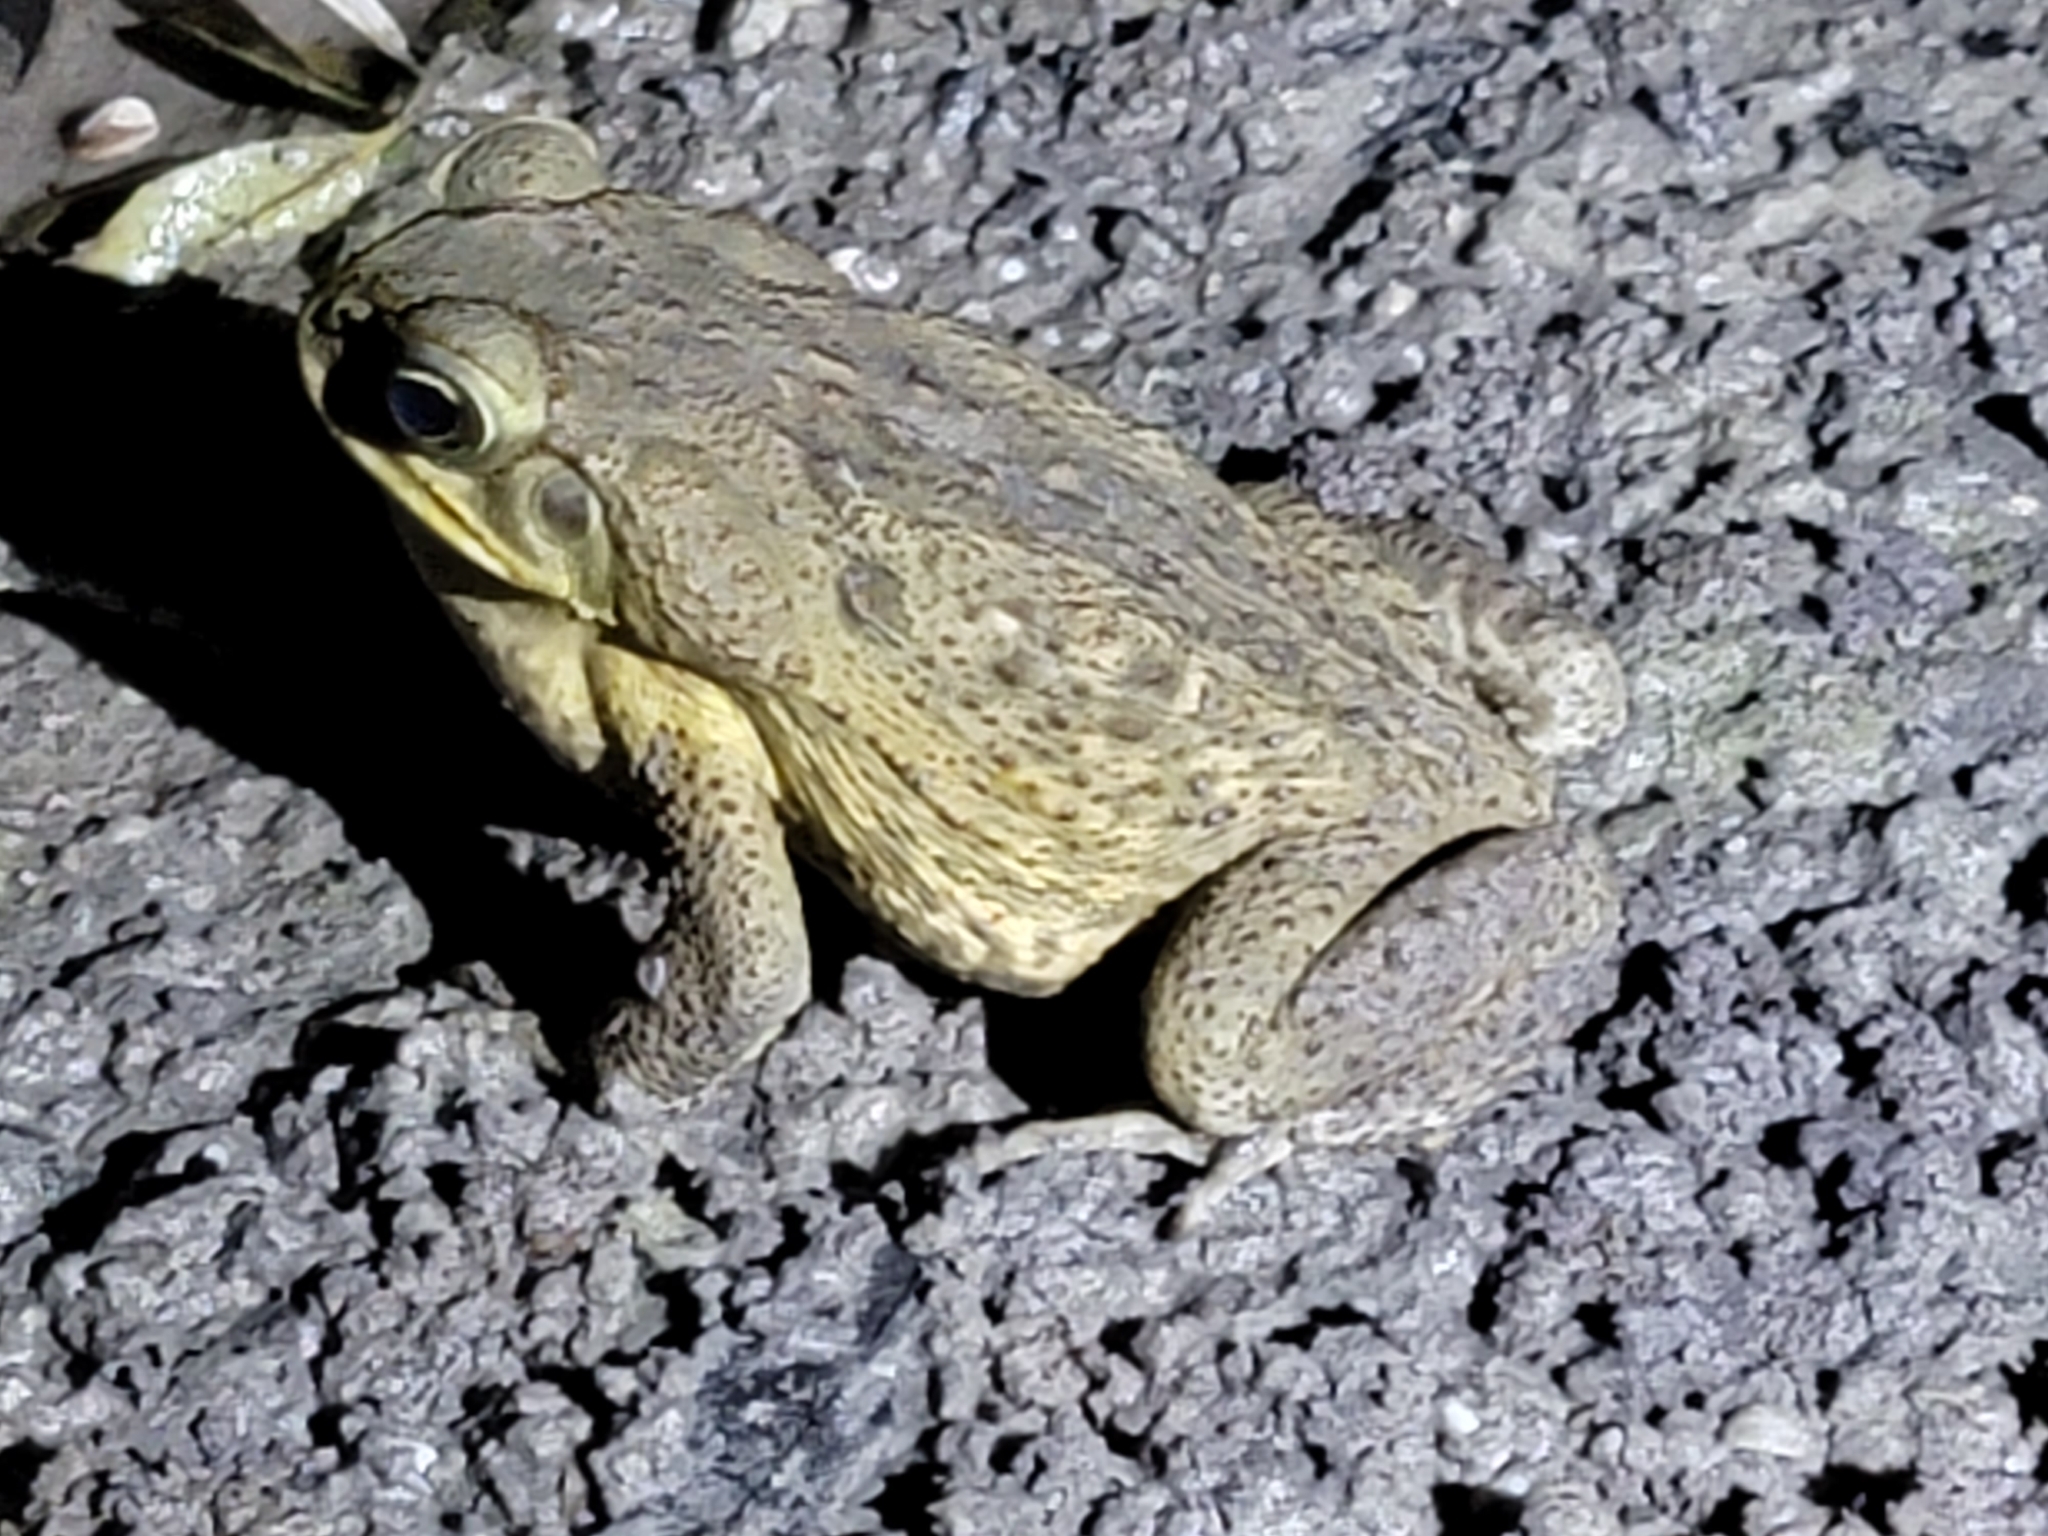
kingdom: Animalia
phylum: Chordata
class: Amphibia
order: Anura
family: Bufonidae
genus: Rhinella
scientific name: Rhinella marina
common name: Cane toad
